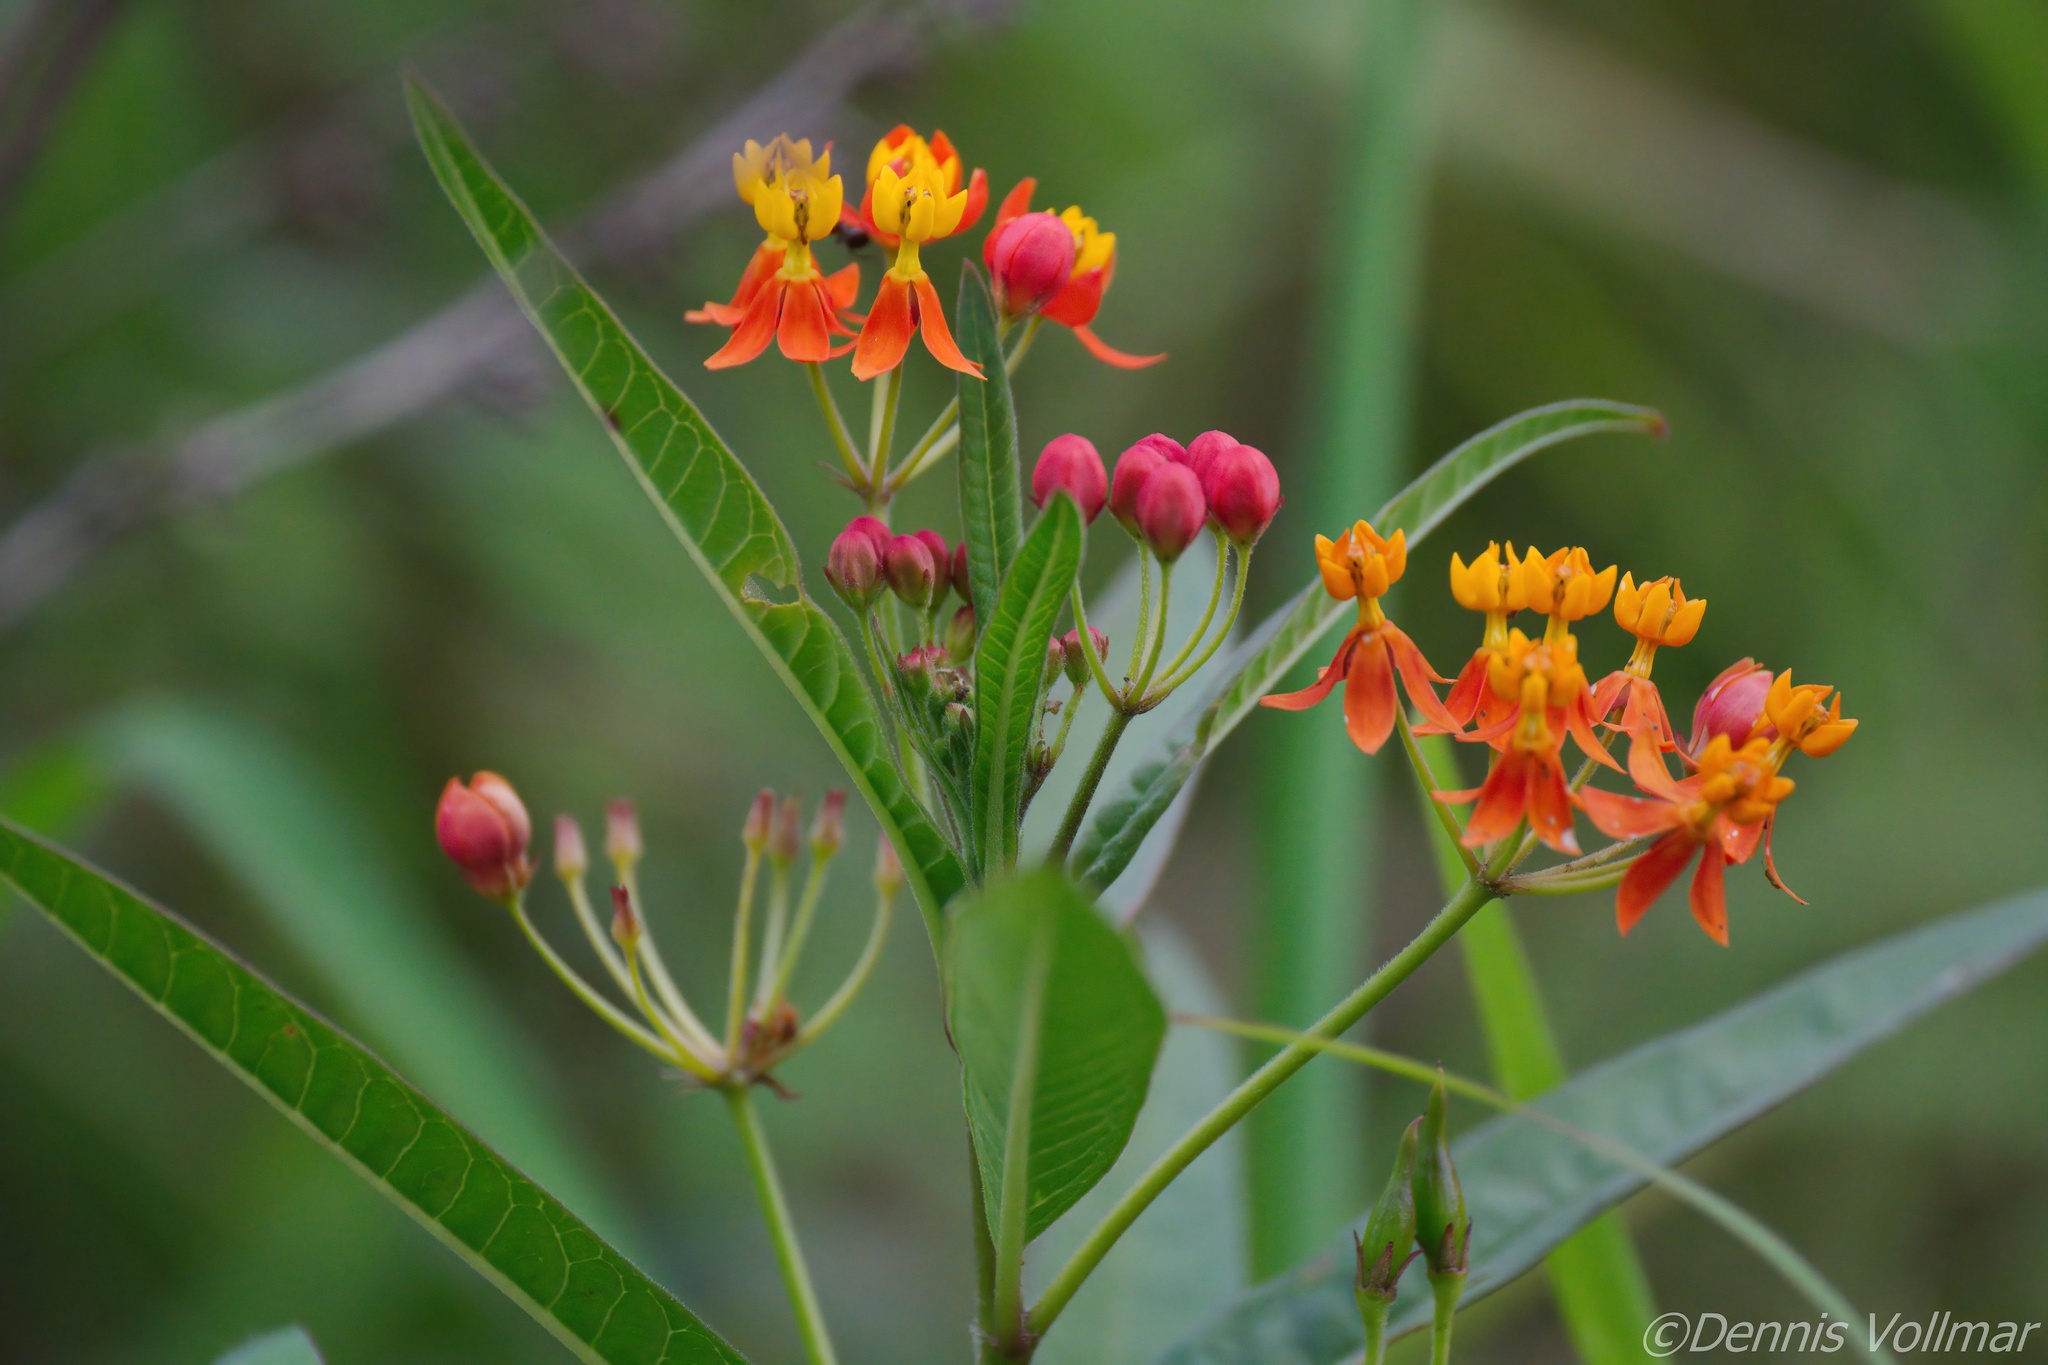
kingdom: Plantae
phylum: Tracheophyta
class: Magnoliopsida
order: Gentianales
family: Apocynaceae
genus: Asclepias
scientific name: Asclepias curassavica
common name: Bloodflower
